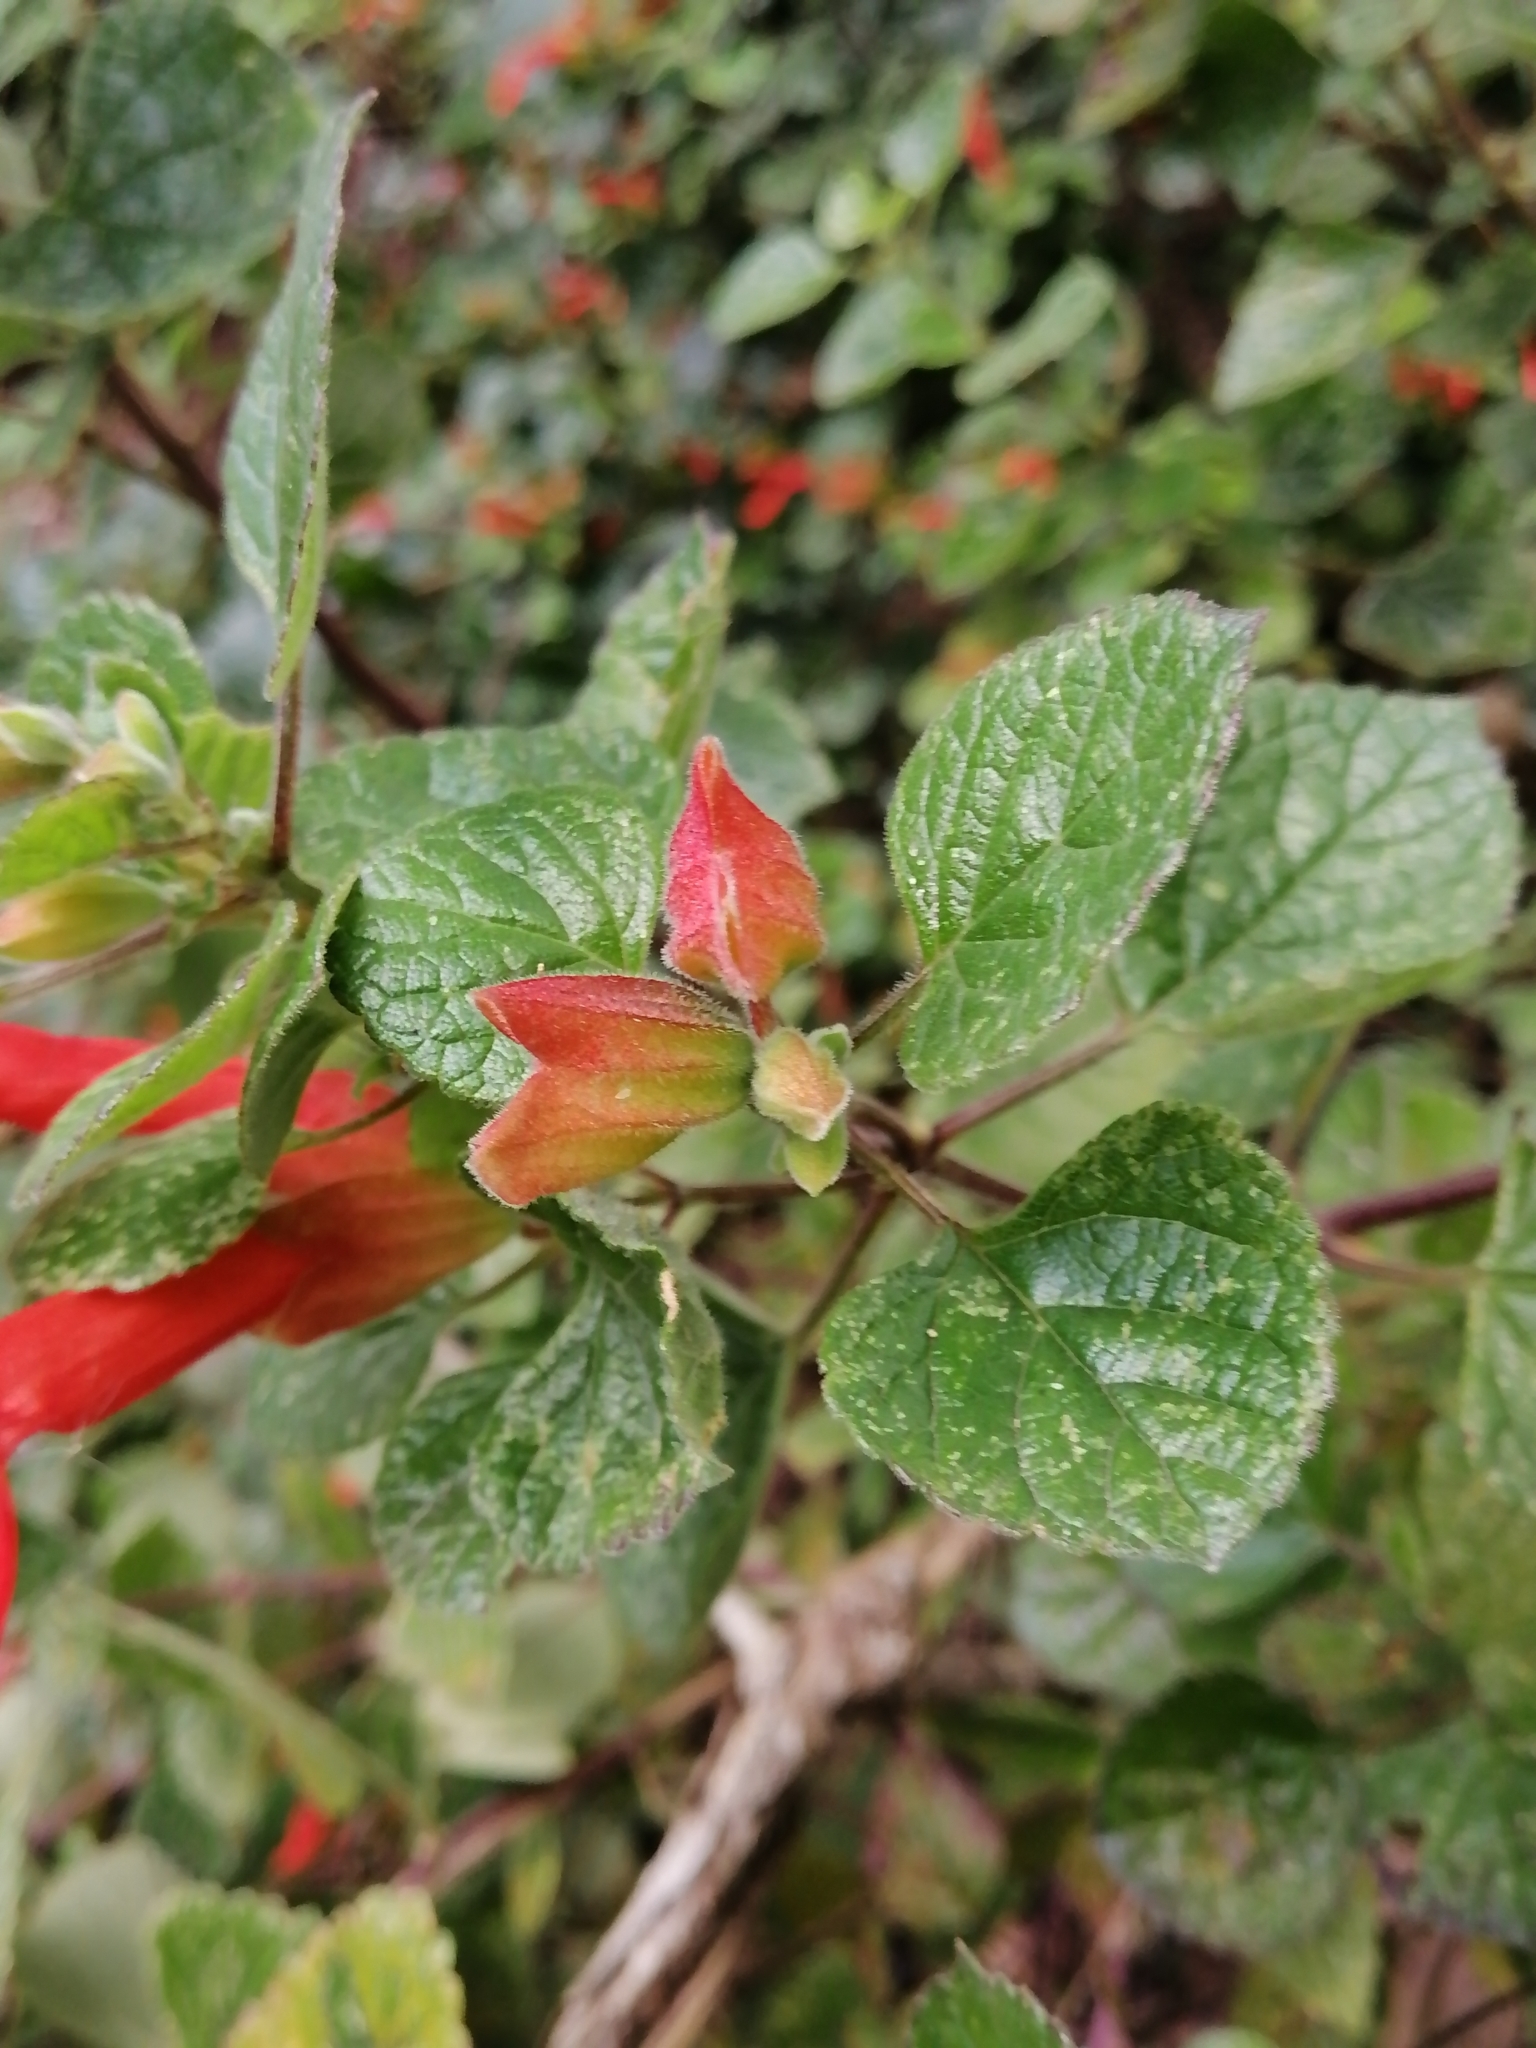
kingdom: Plantae
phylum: Tracheophyta
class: Magnoliopsida
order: Lamiales
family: Lamiaceae
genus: Salvia
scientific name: Salvia regla
